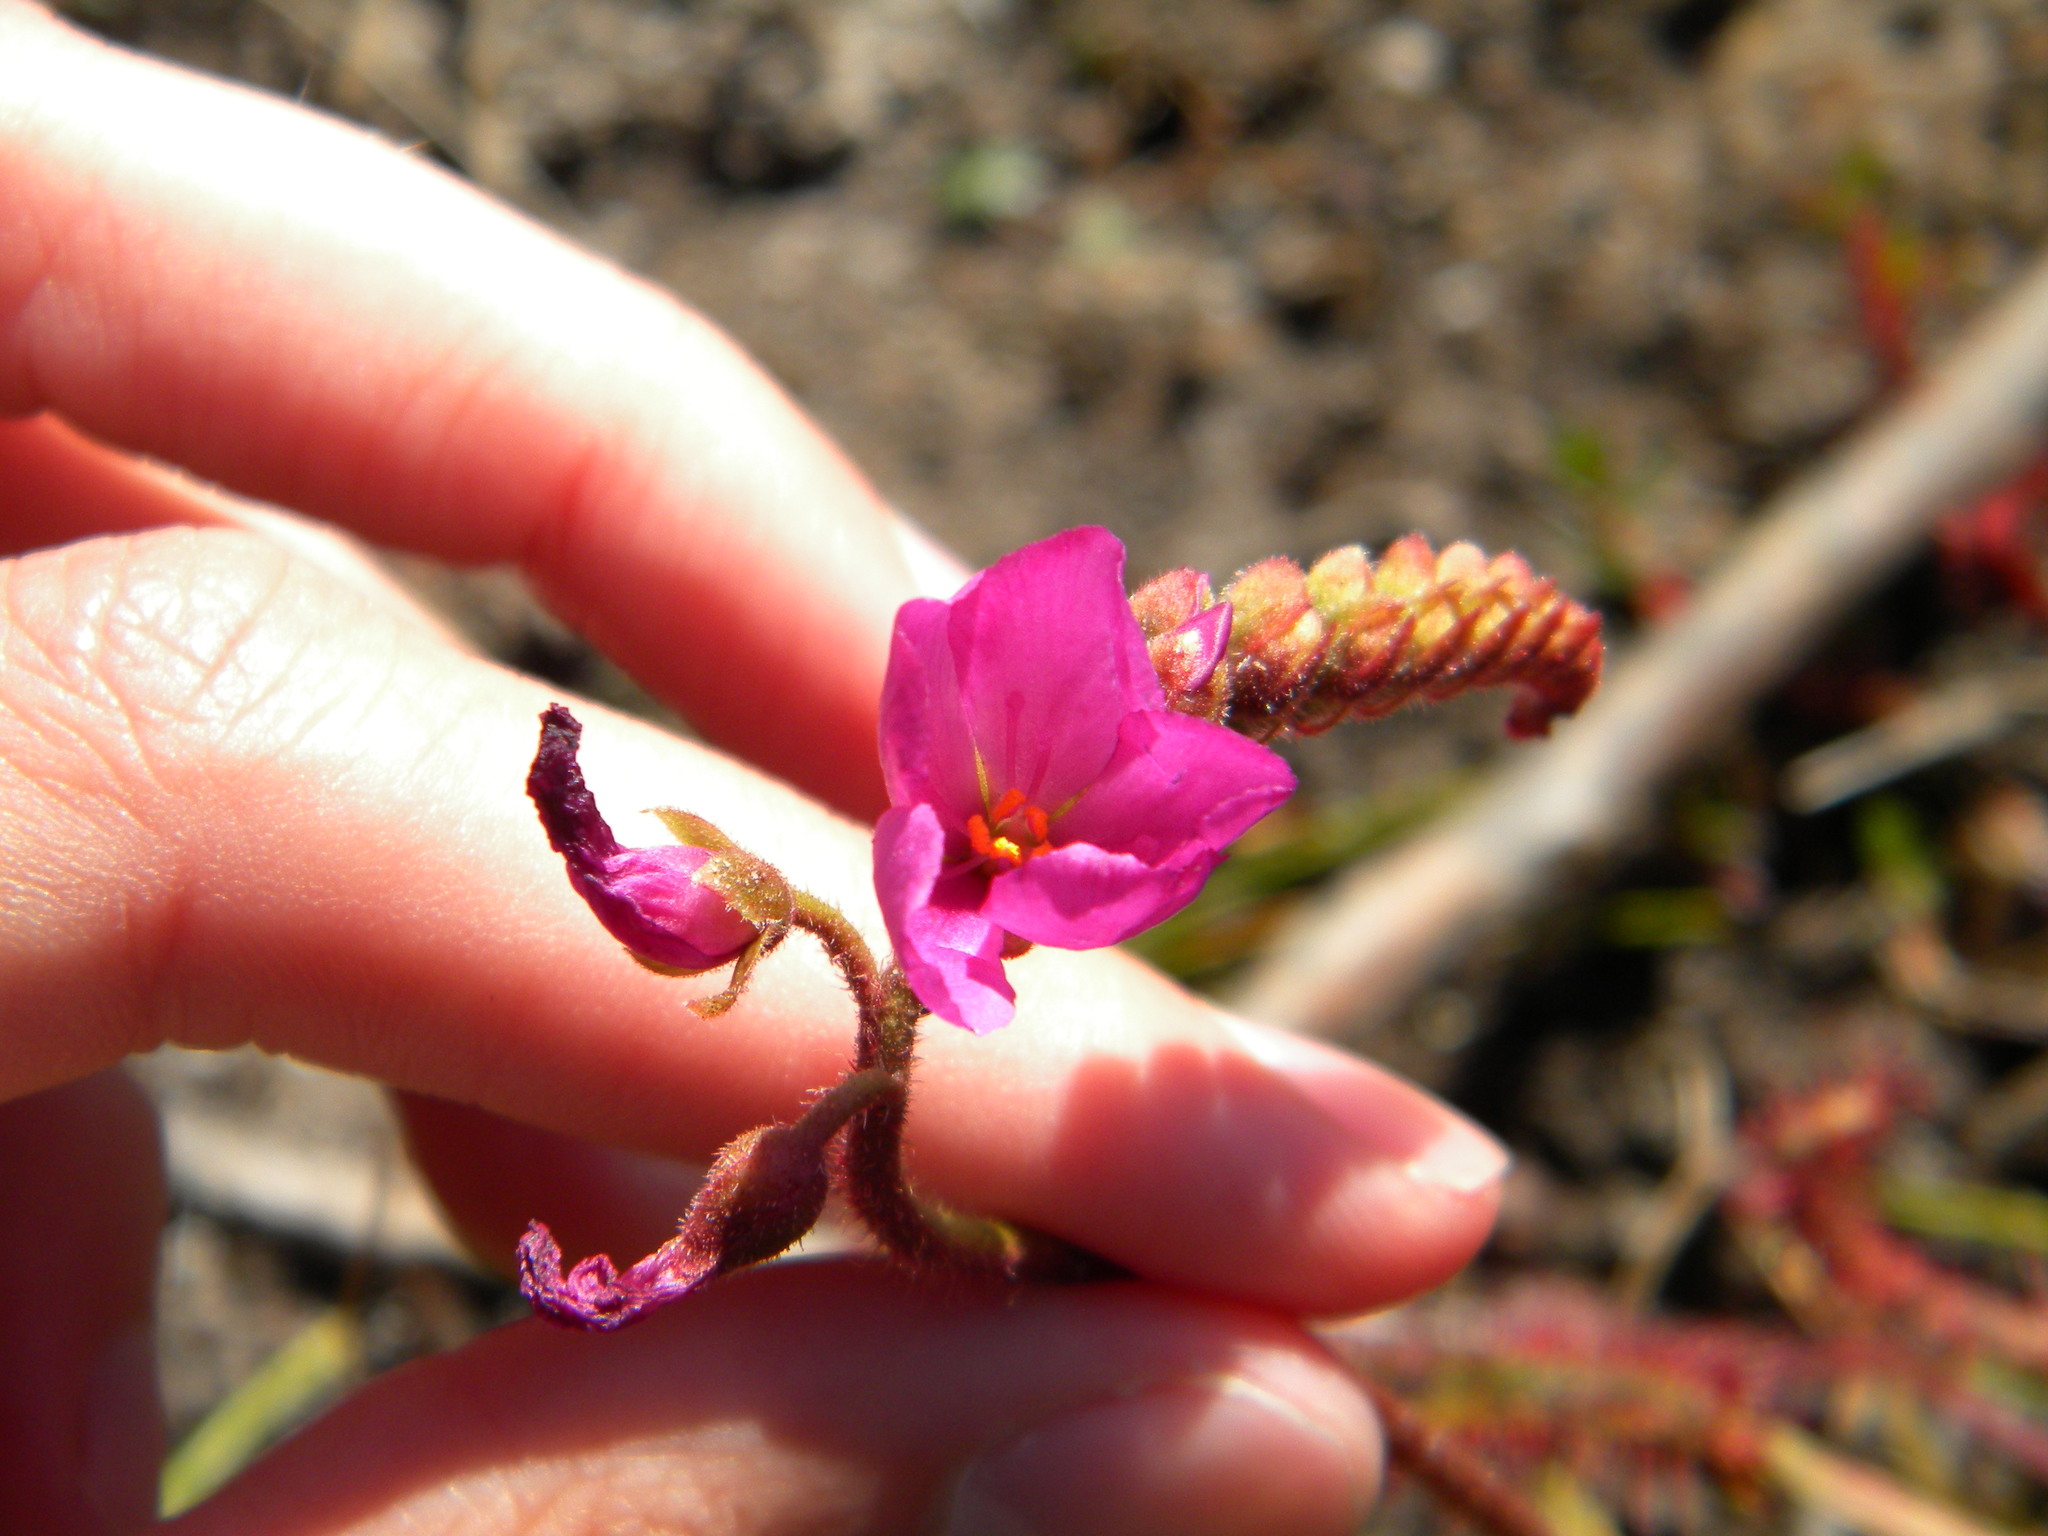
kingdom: Plantae
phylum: Tracheophyta
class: Magnoliopsida
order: Caryophyllales
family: Droseraceae
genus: Drosera
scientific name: Drosera capensis
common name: Cape sundew
